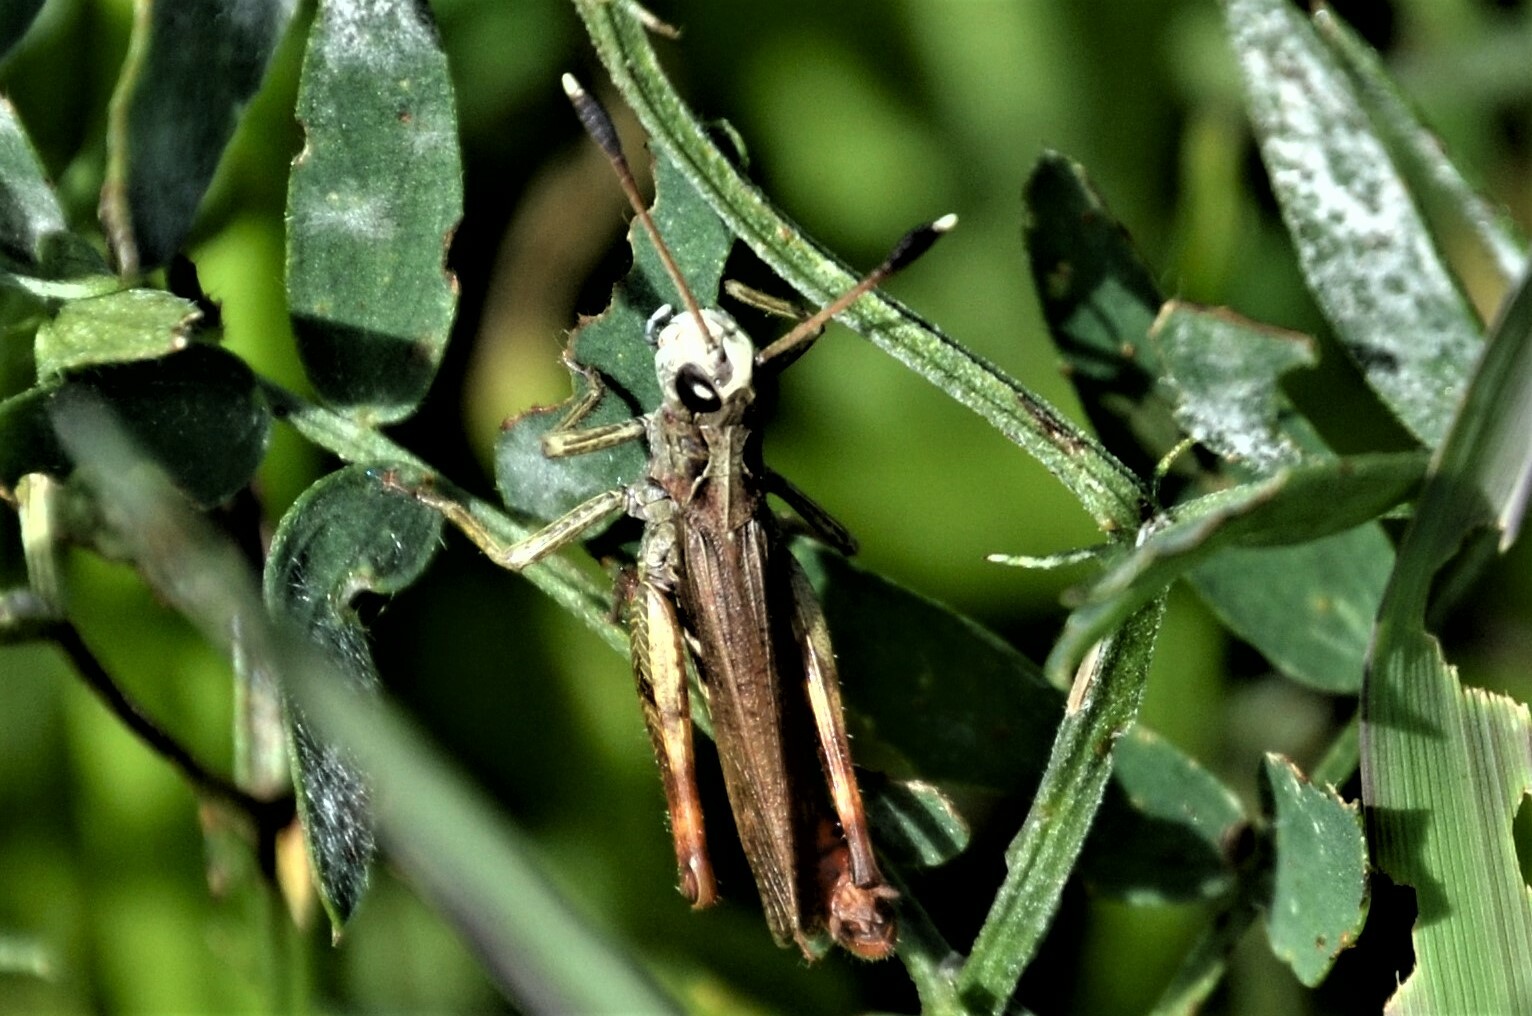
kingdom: Animalia
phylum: Arthropoda
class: Insecta
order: Orthoptera
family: Acrididae
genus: Gomphocerippus
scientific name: Gomphocerippus rufus
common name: Rufous grasshopper
